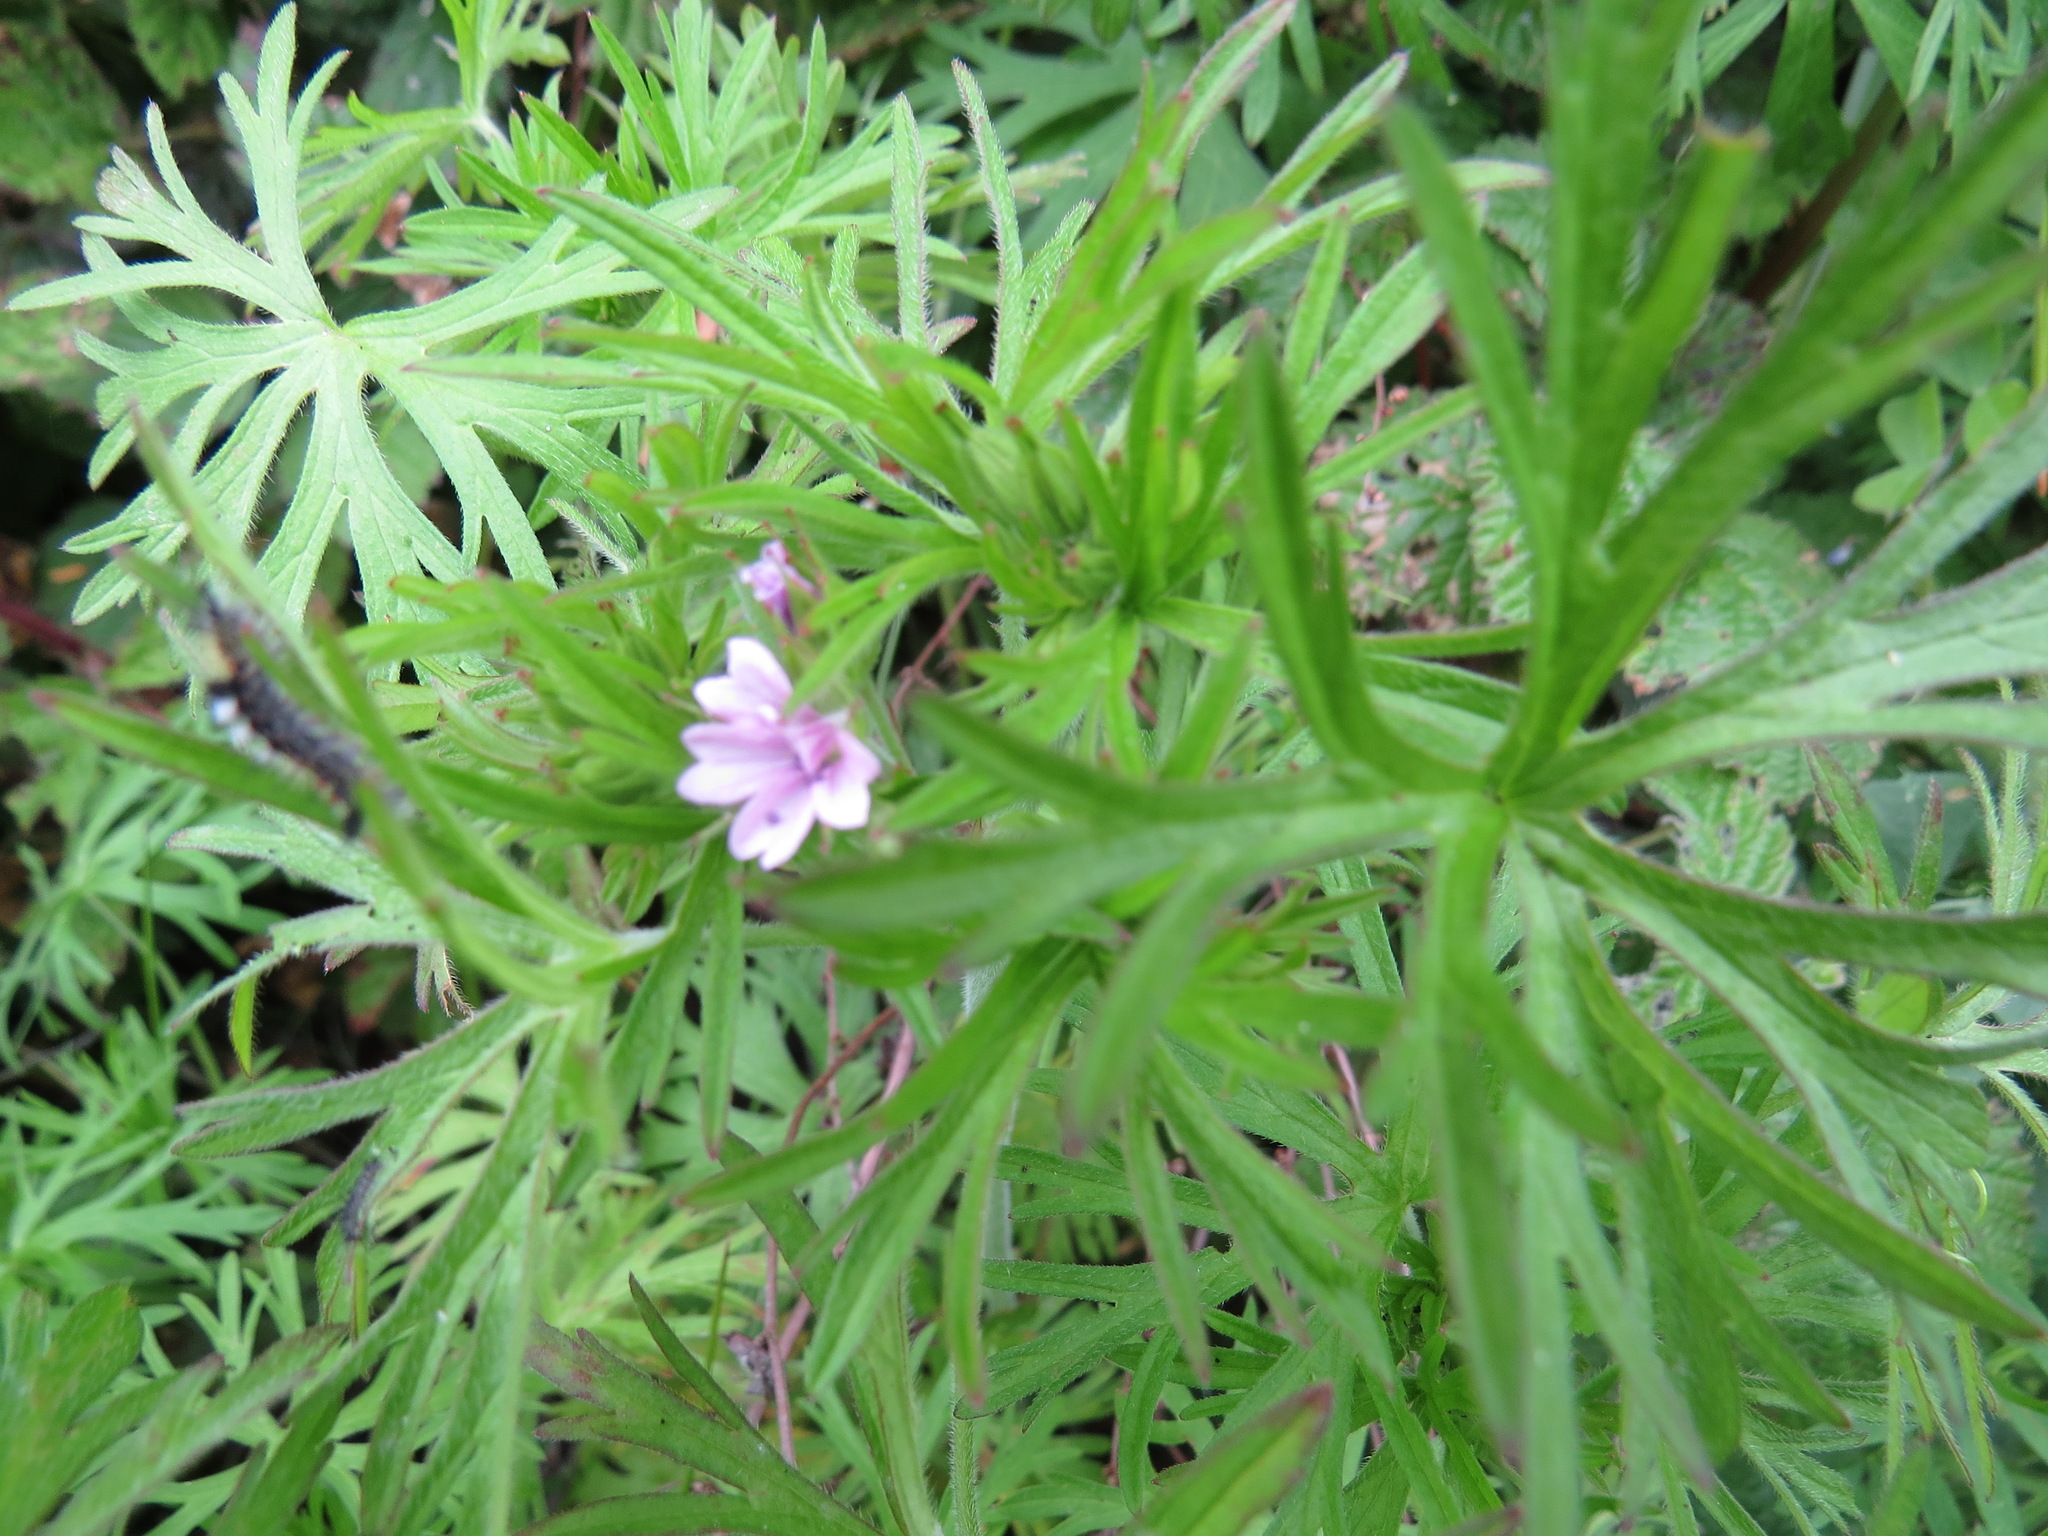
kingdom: Plantae
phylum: Tracheophyta
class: Magnoliopsida
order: Geraniales
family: Geraniaceae
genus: Geranium
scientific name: Geranium dissectum
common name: Cut-leaved crane's-bill
